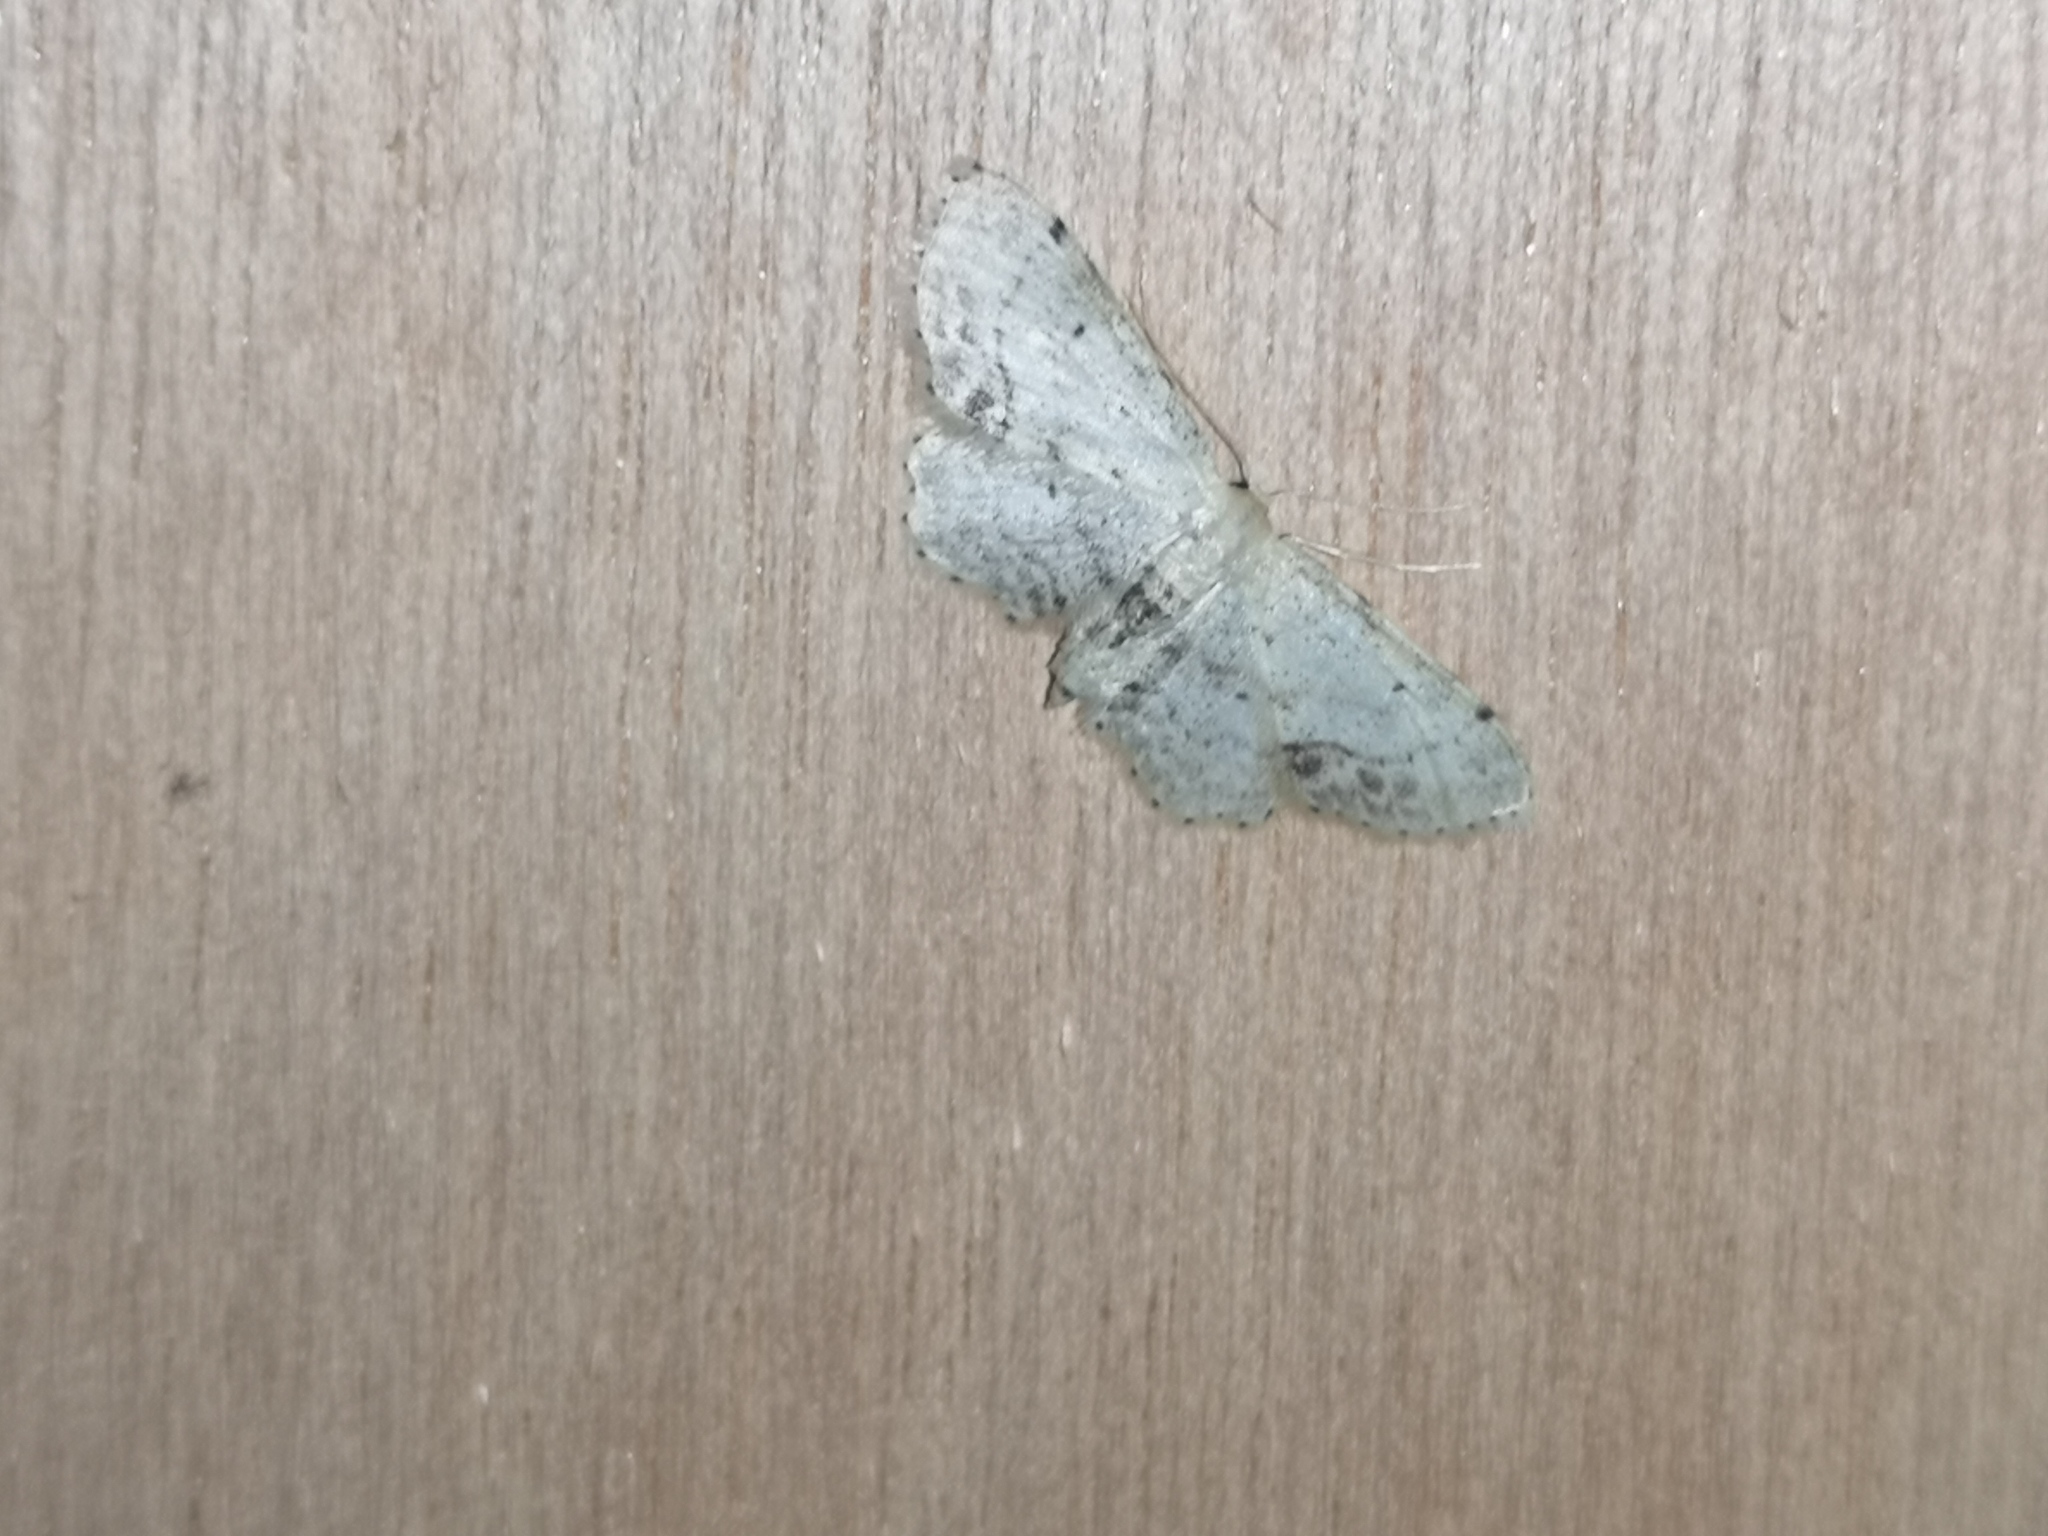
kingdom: Animalia
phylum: Arthropoda
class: Insecta
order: Lepidoptera
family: Geometridae
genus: Idaea
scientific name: Idaea dimidiata
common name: Single-dotted wave
